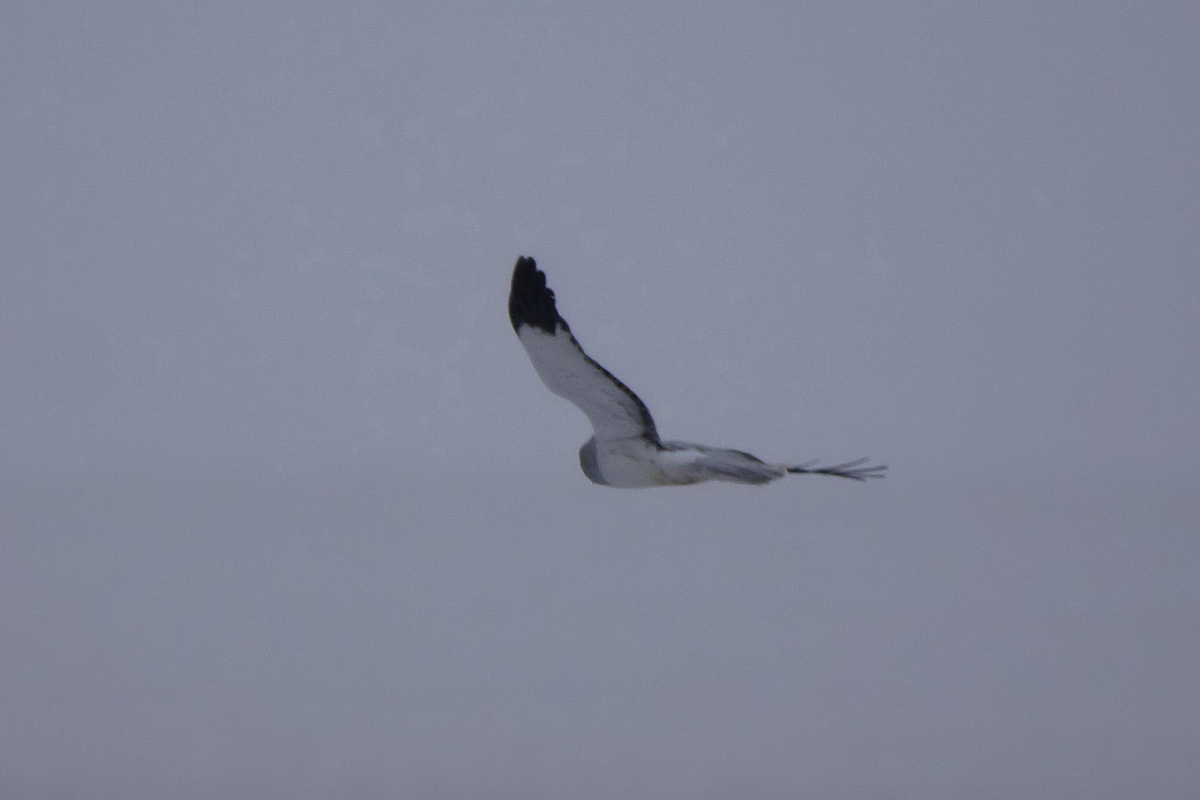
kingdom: Animalia
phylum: Chordata
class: Aves
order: Accipitriformes
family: Accipitridae
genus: Circus
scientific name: Circus cyaneus
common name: Hen harrier
